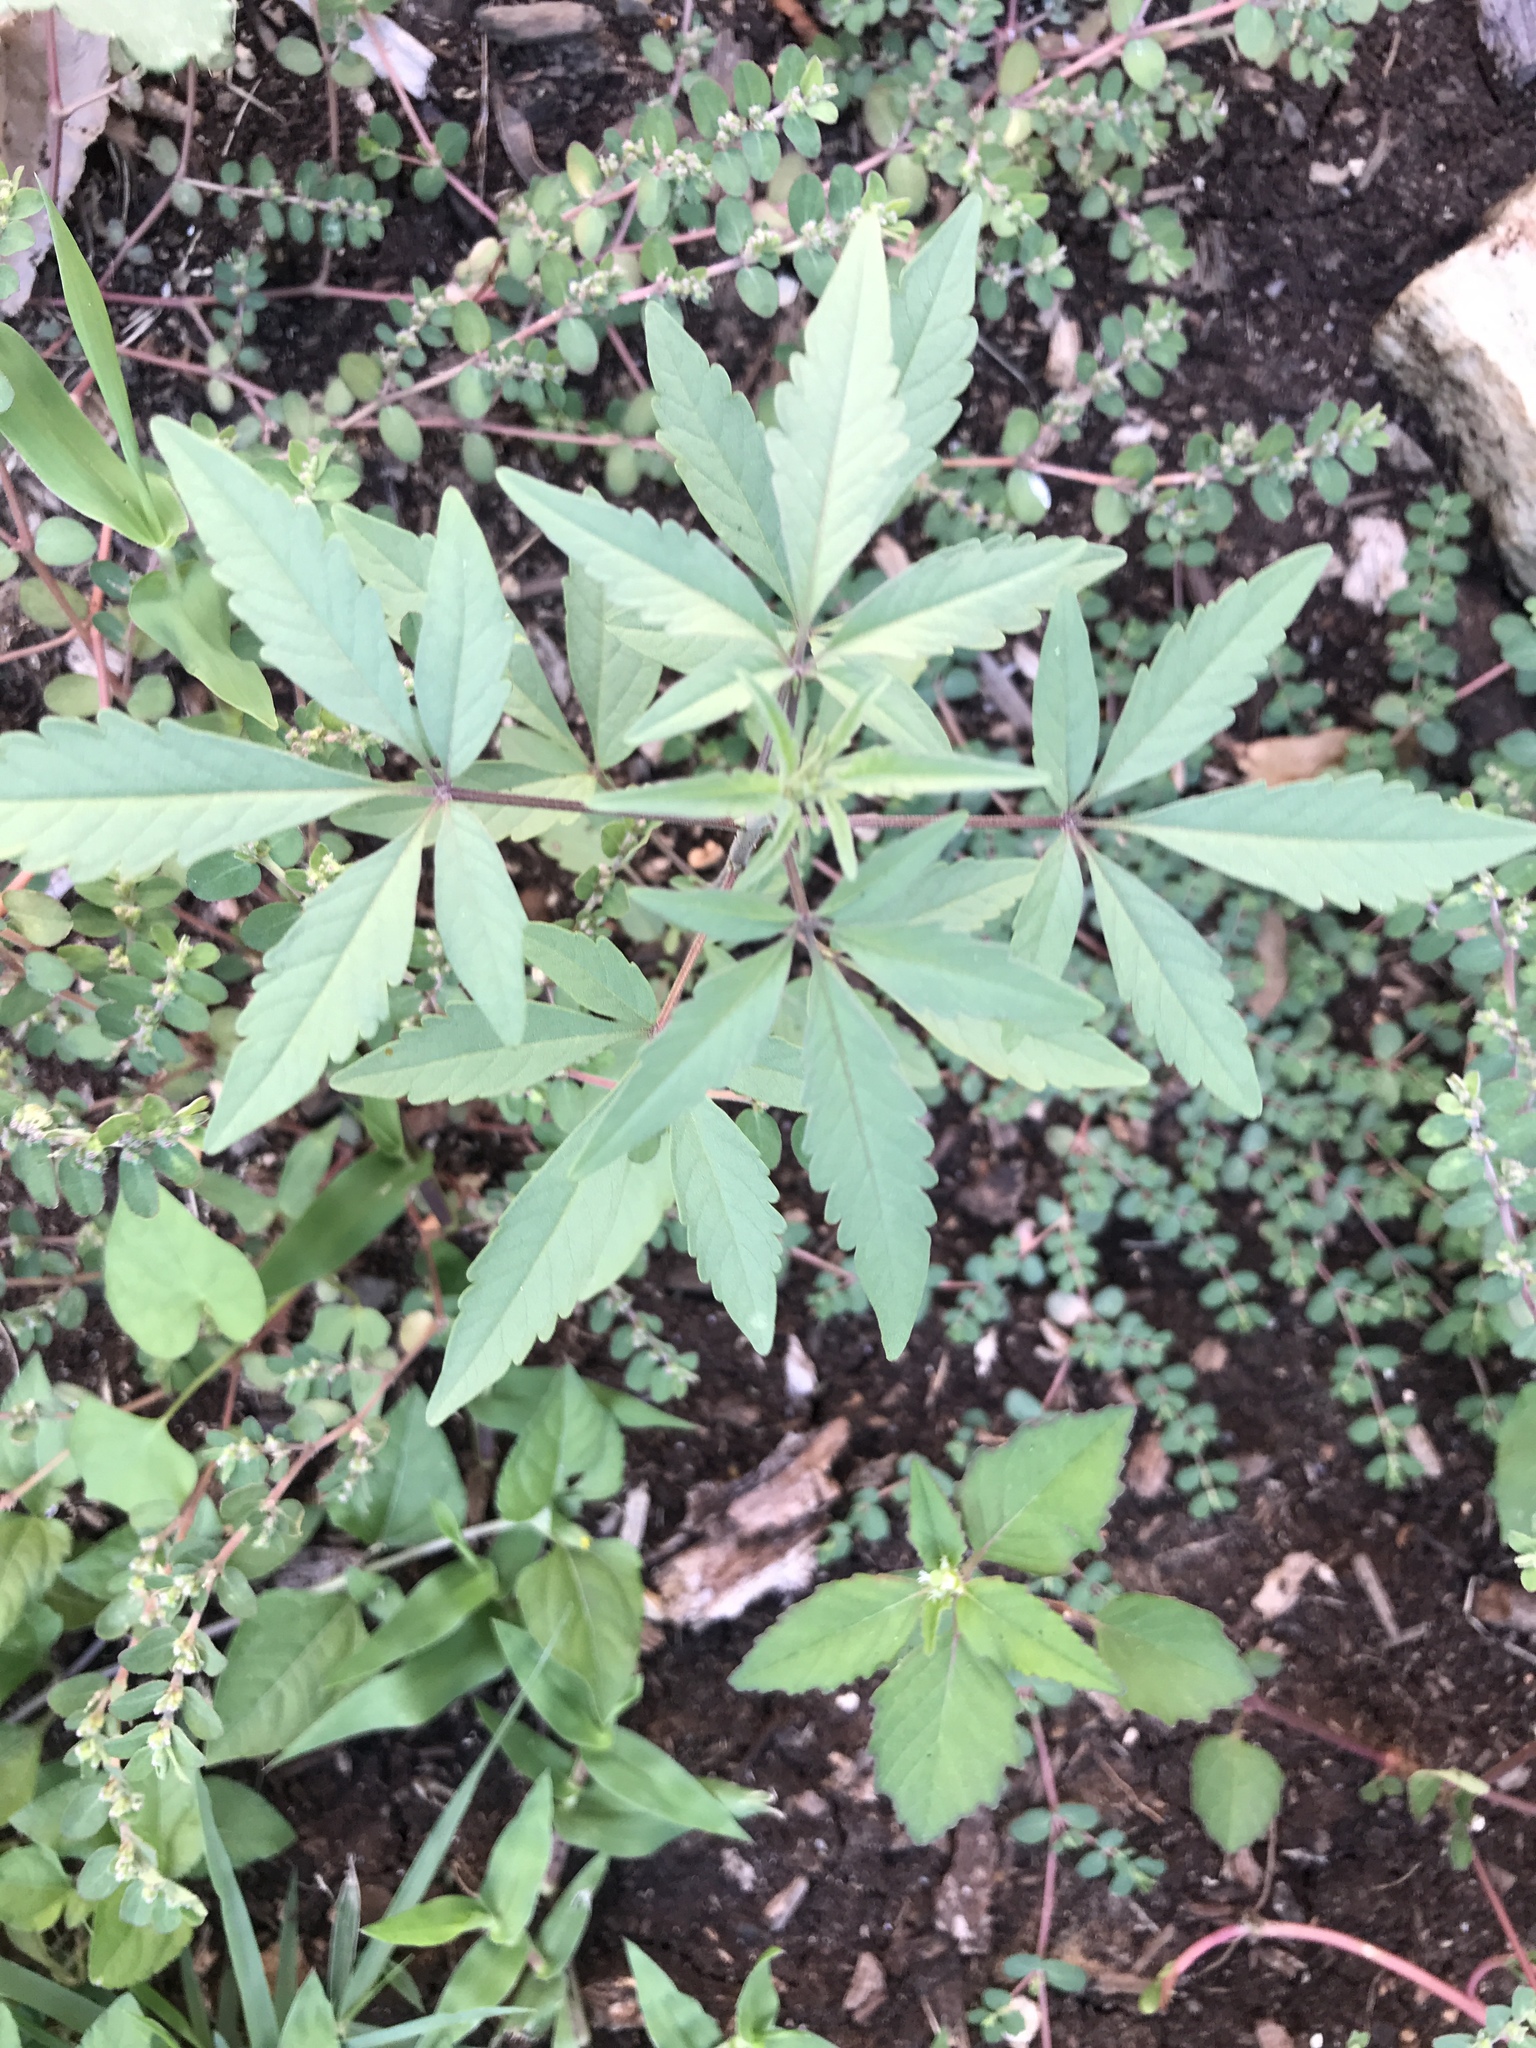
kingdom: Plantae
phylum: Tracheophyta
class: Magnoliopsida
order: Lamiales
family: Lamiaceae
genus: Vitex
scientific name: Vitex agnus-castus
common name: Chasteberry
